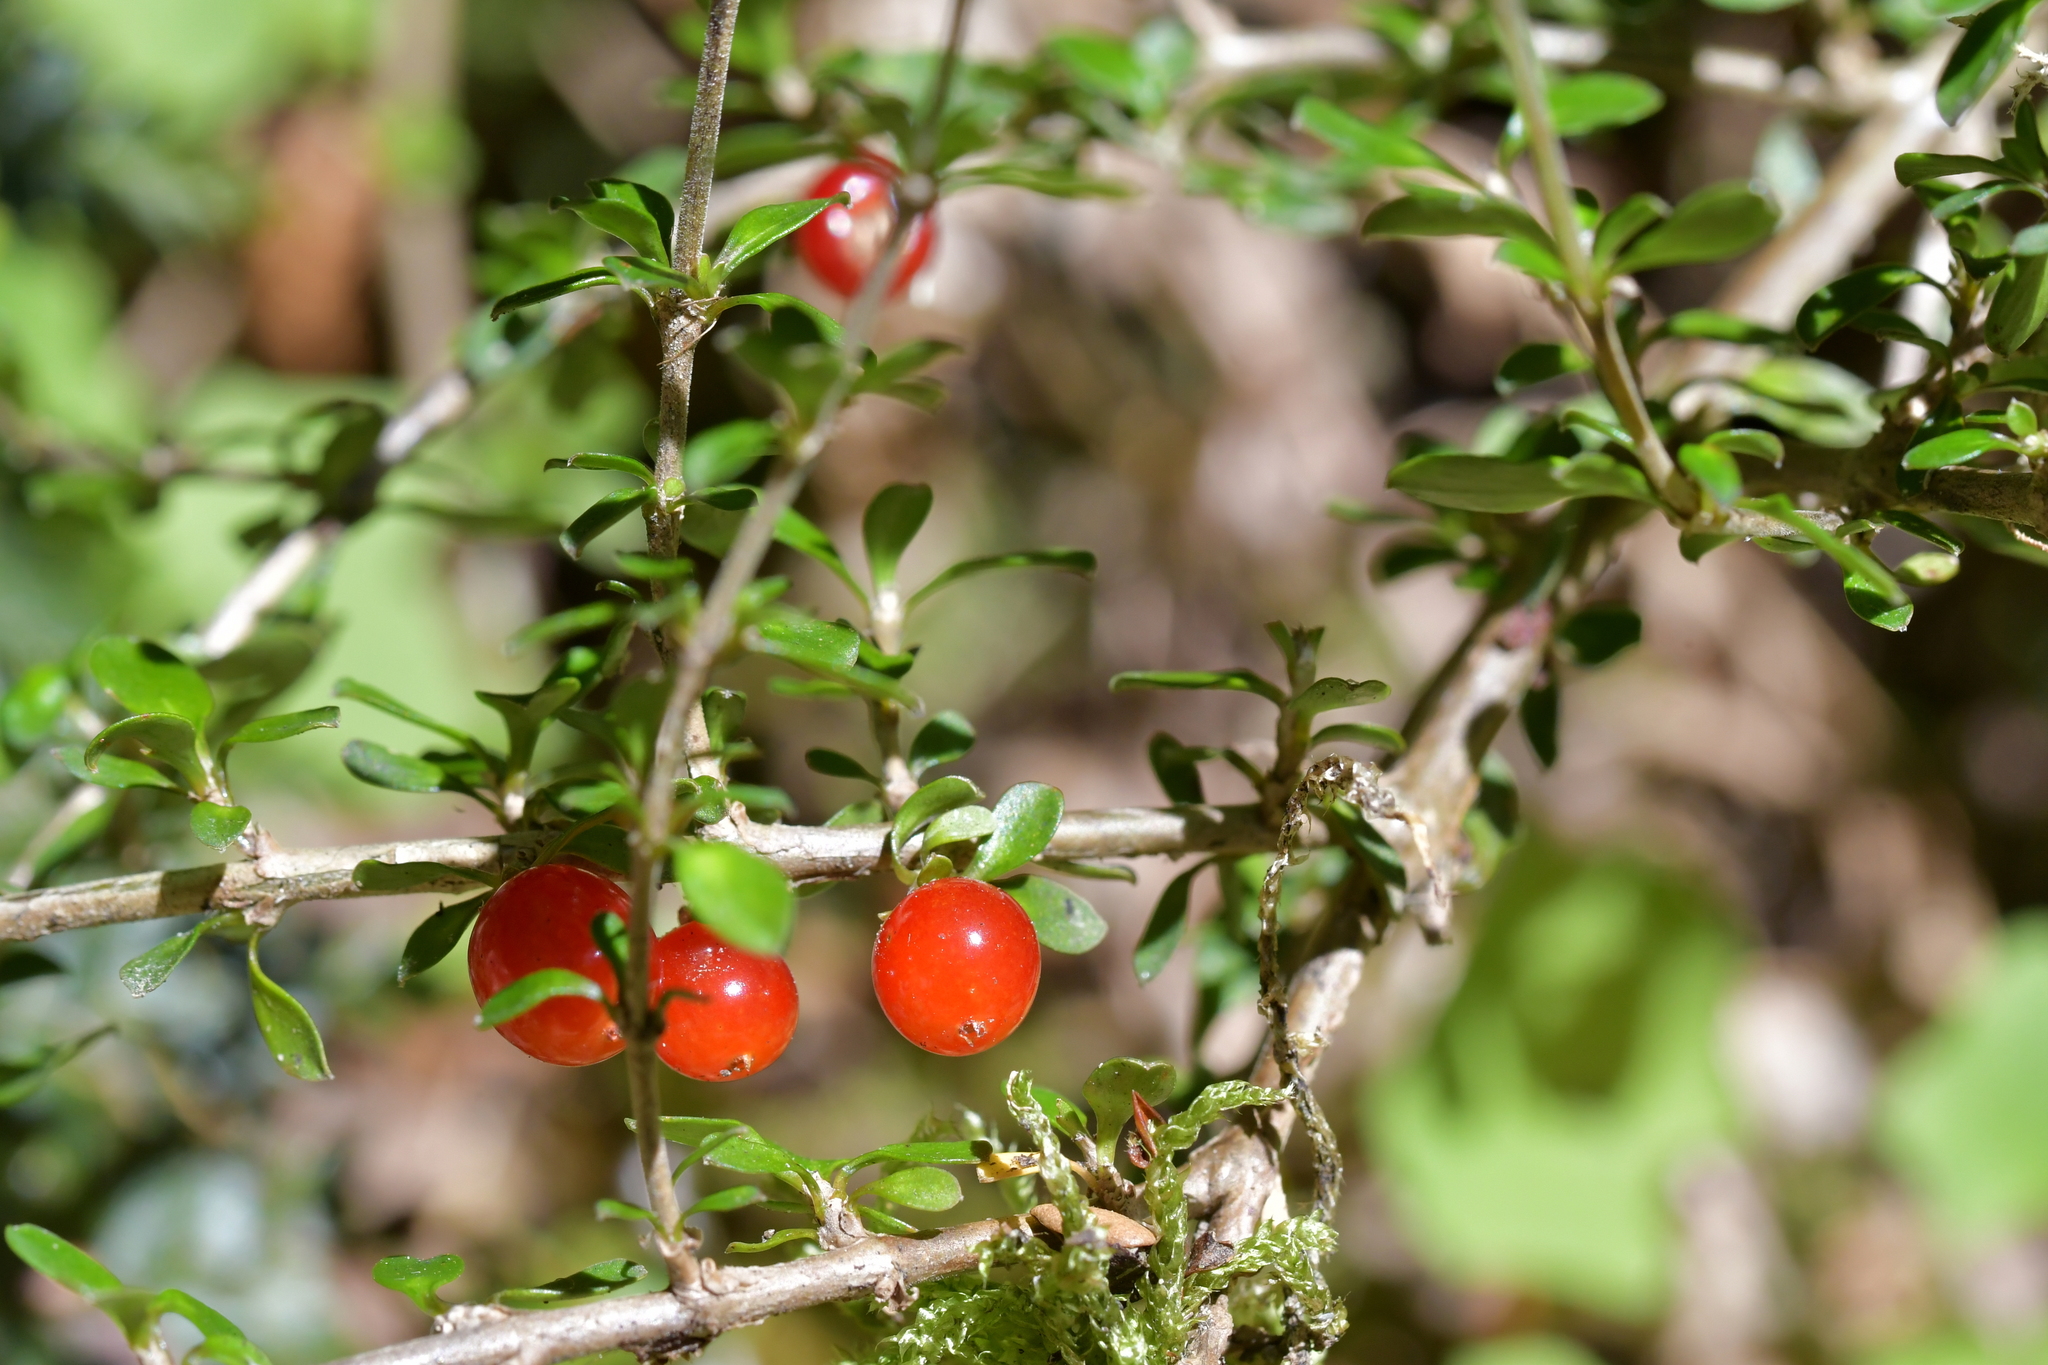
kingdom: Plantae
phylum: Tracheophyta
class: Magnoliopsida
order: Gentianales
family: Rubiaceae
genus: Coprosma
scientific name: Coprosma depressa
